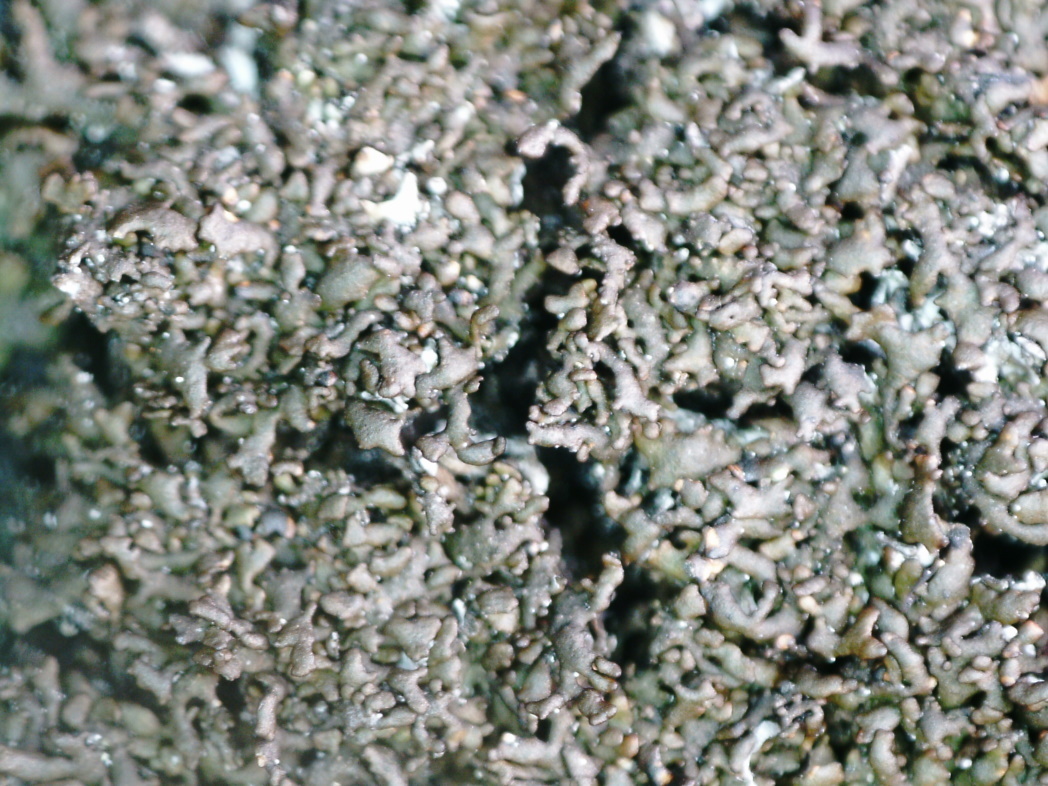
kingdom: Fungi
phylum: Ascomycota
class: Lecanoromycetes
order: Lecanorales
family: Parmeliaceae
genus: Montanelia
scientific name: Montanelia panniformis
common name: Shingled camouflage lichen
